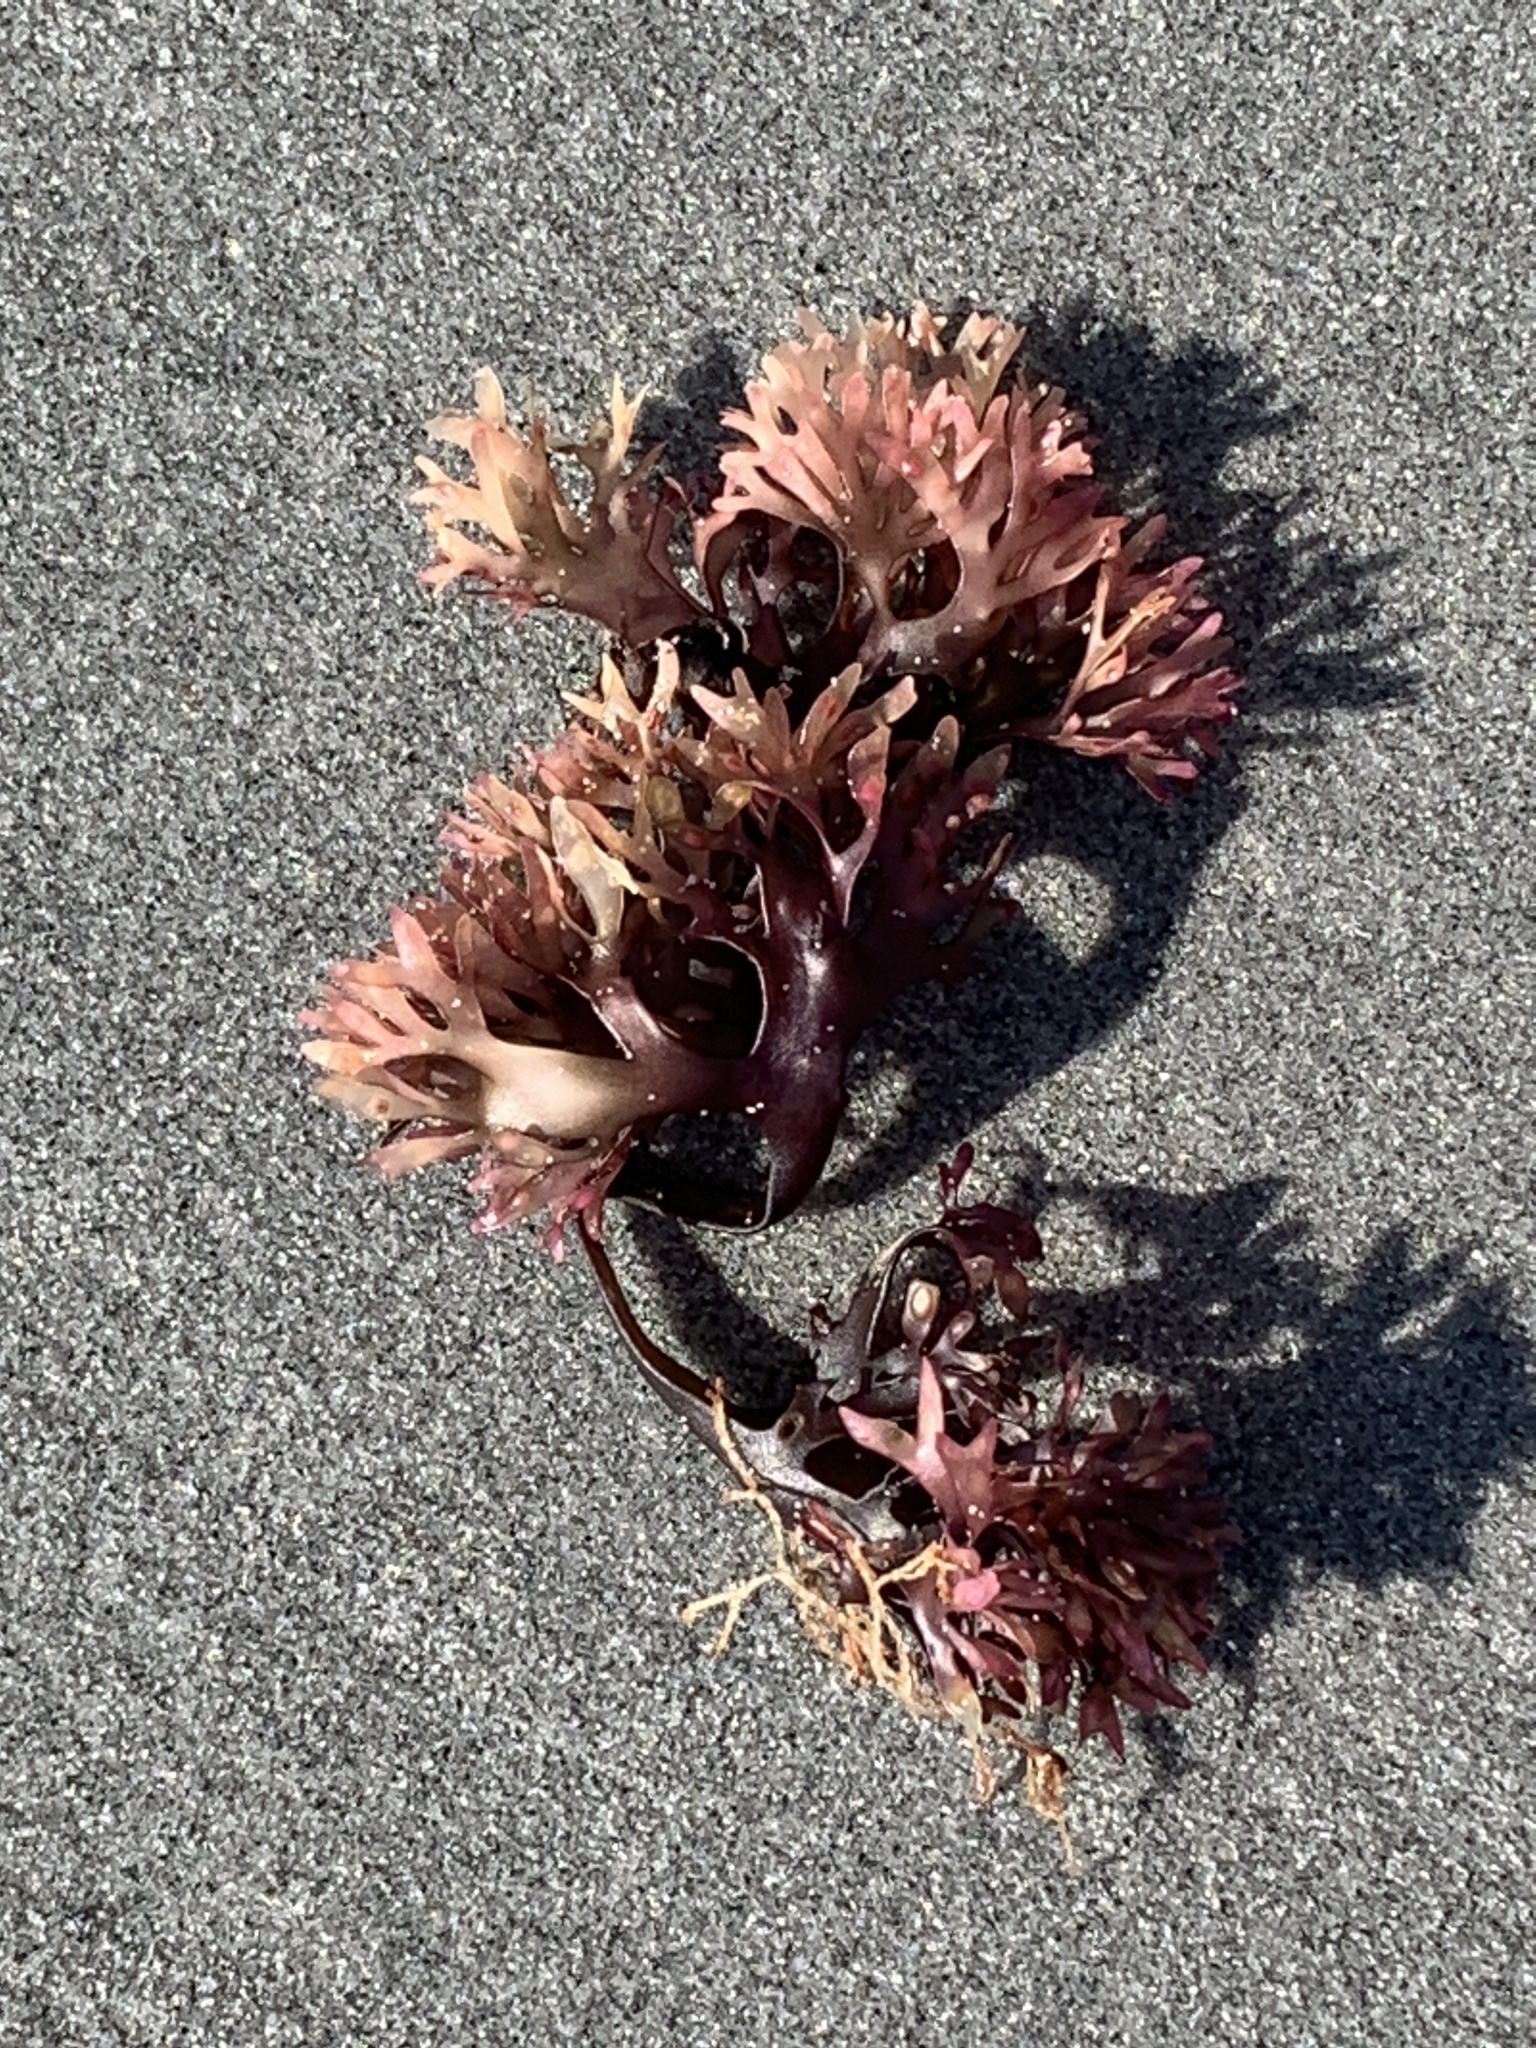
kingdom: Plantae
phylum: Rhodophyta
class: Florideophyceae
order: Gigartinales
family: Gigartinaceae
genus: Chondrus
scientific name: Chondrus crispus
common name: Carrageen
